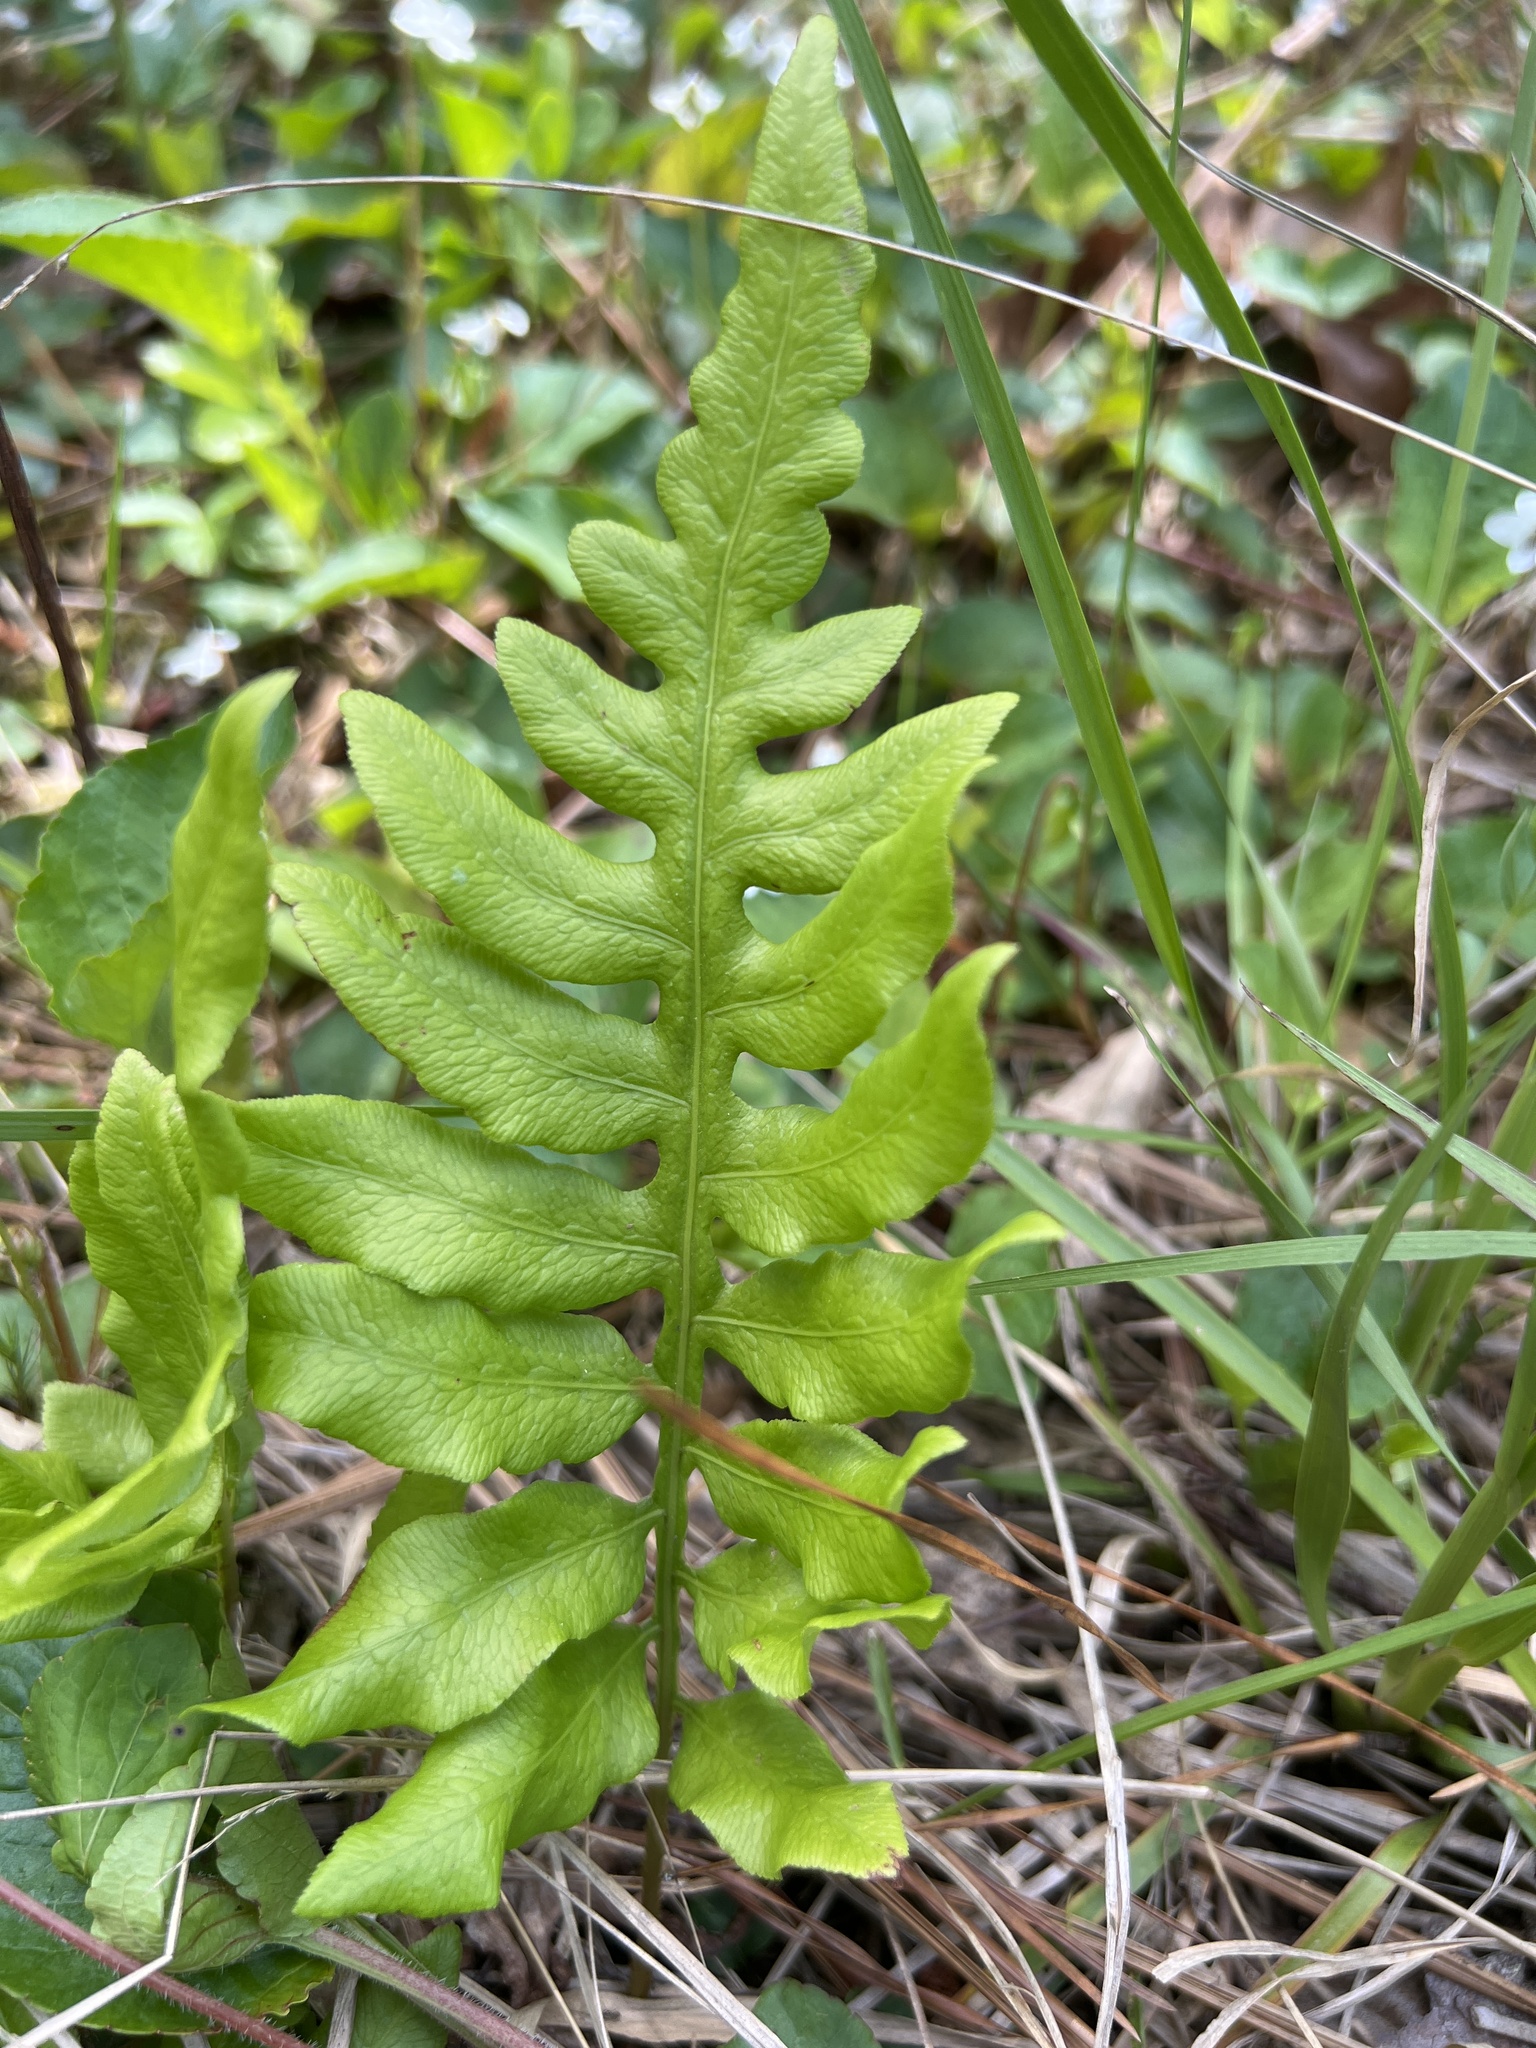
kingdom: Plantae
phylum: Tracheophyta
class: Polypodiopsida
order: Polypodiales
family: Blechnaceae
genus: Lorinseria
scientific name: Lorinseria areolata
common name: Dwarf chain fern
